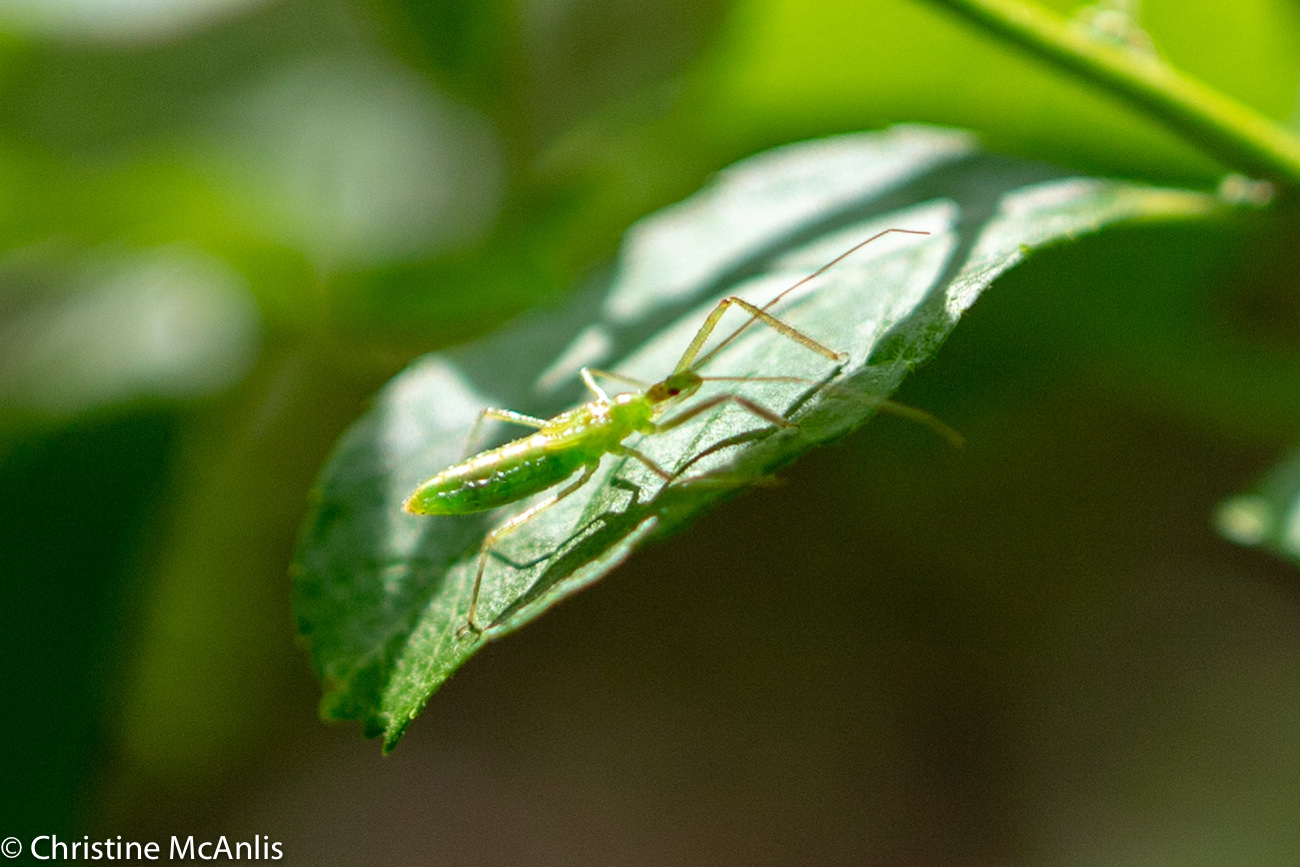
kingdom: Animalia
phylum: Arthropoda
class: Insecta
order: Hemiptera
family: Reduviidae
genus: Zelus
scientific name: Zelus luridus
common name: Pale green assassin bug
